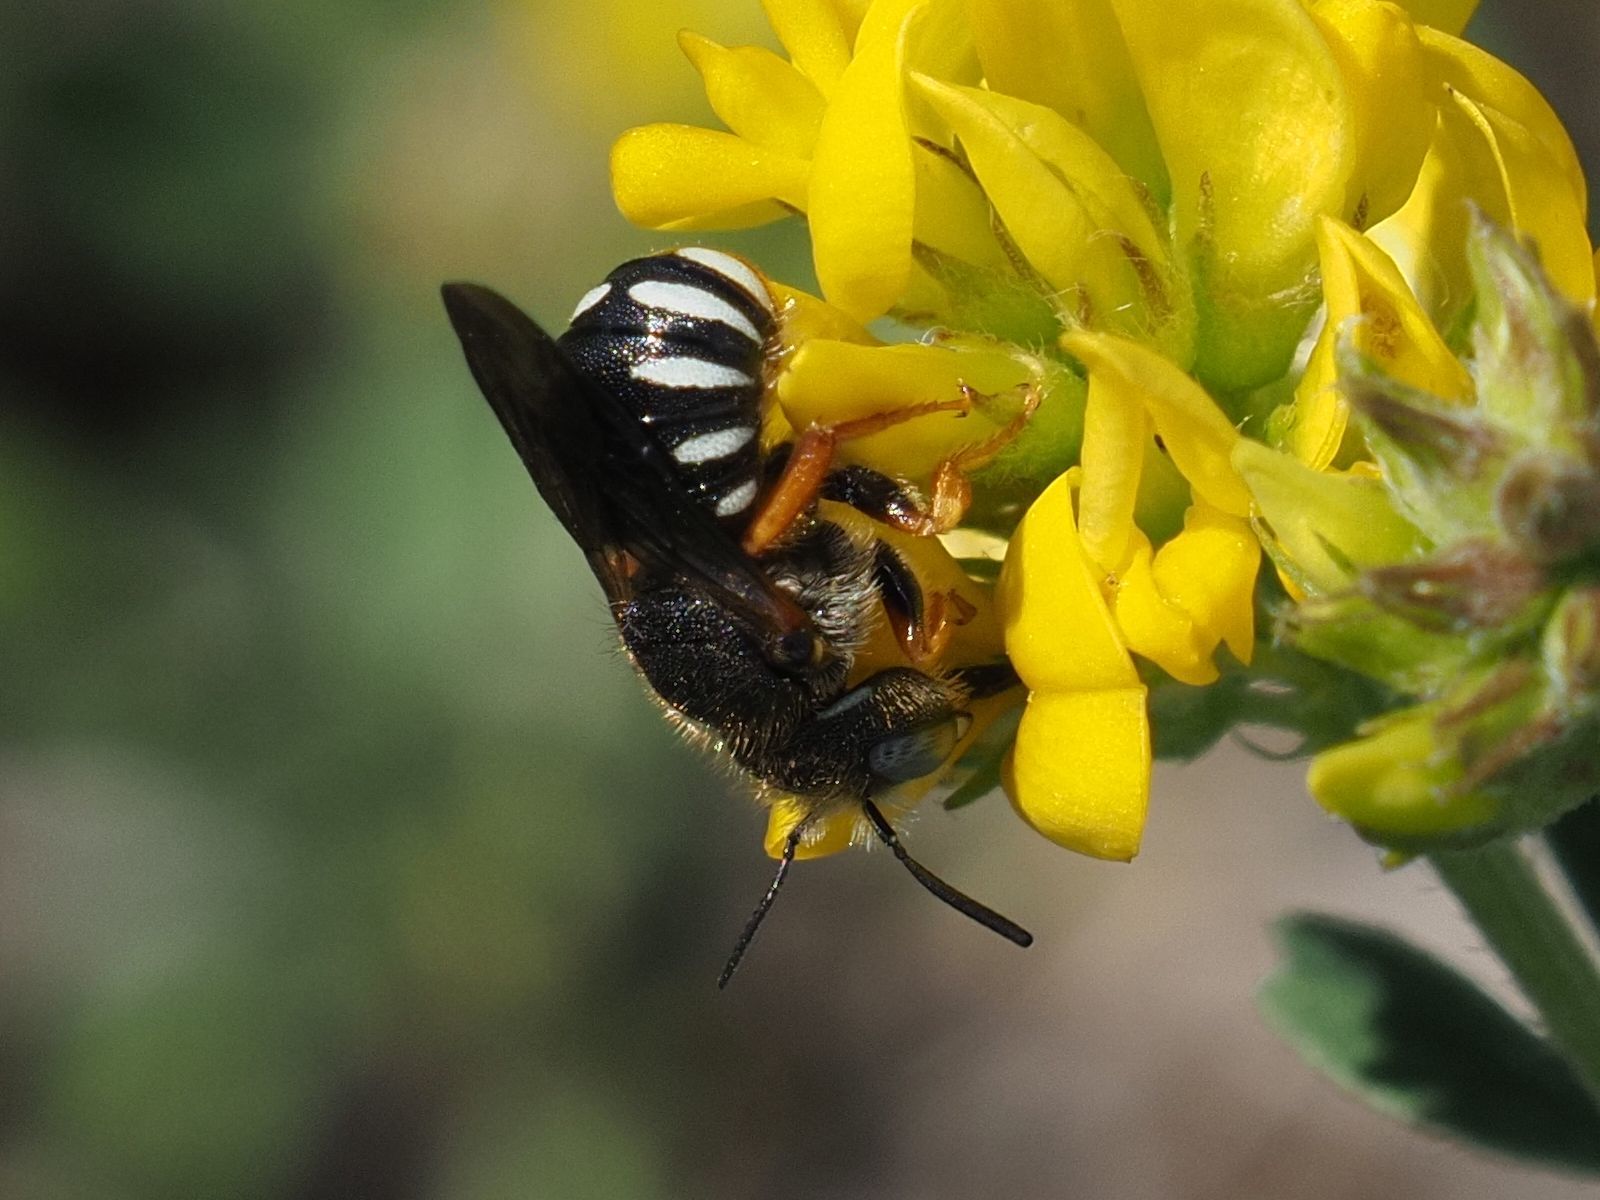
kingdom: Animalia
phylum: Arthropoda
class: Insecta
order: Hymenoptera
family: Megachilidae
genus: Pseudoanthidium
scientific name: Pseudoanthidium tenellum
